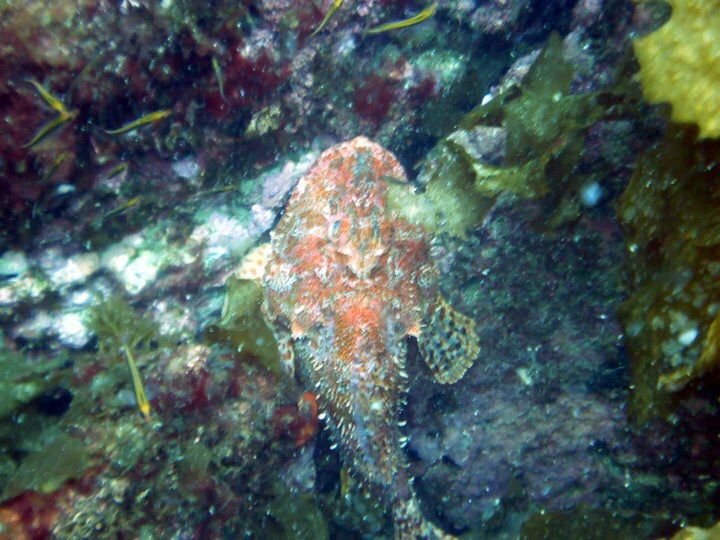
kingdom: Animalia
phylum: Chordata
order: Scorpaeniformes
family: Scorpaenidae
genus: Scorpaena
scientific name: Scorpaena cardinalis
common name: Cardinal scorpionfish
